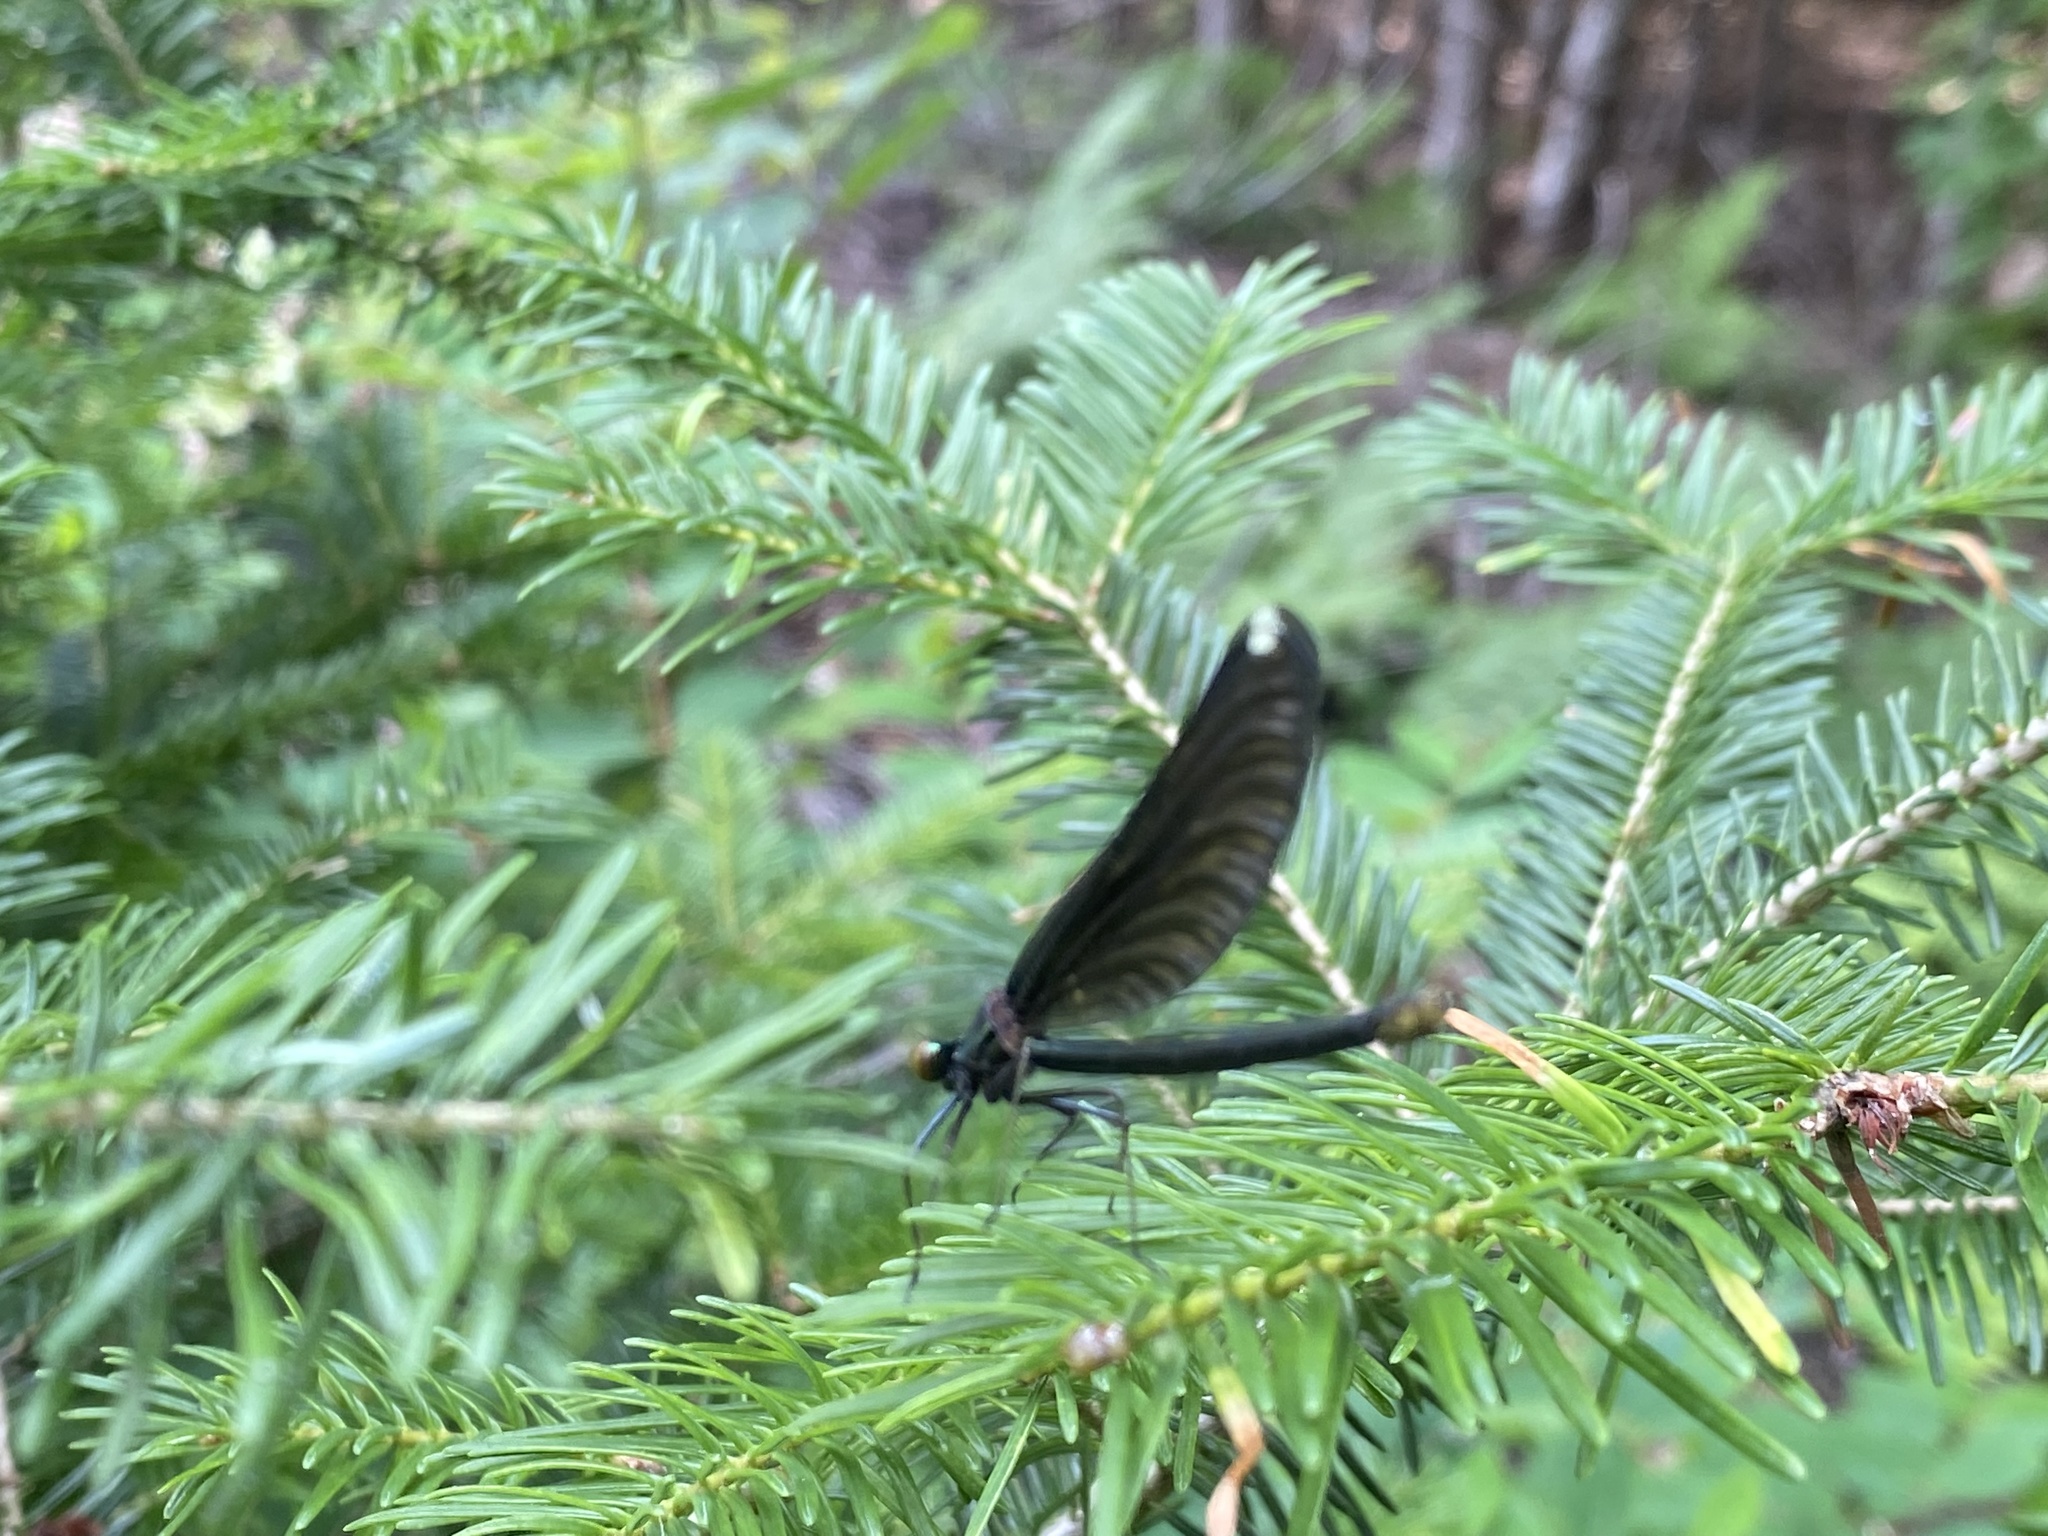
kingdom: Animalia
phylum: Arthropoda
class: Insecta
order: Odonata
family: Calopterygidae
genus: Calopteryx
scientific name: Calopteryx maculata
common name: Ebony jewelwing
